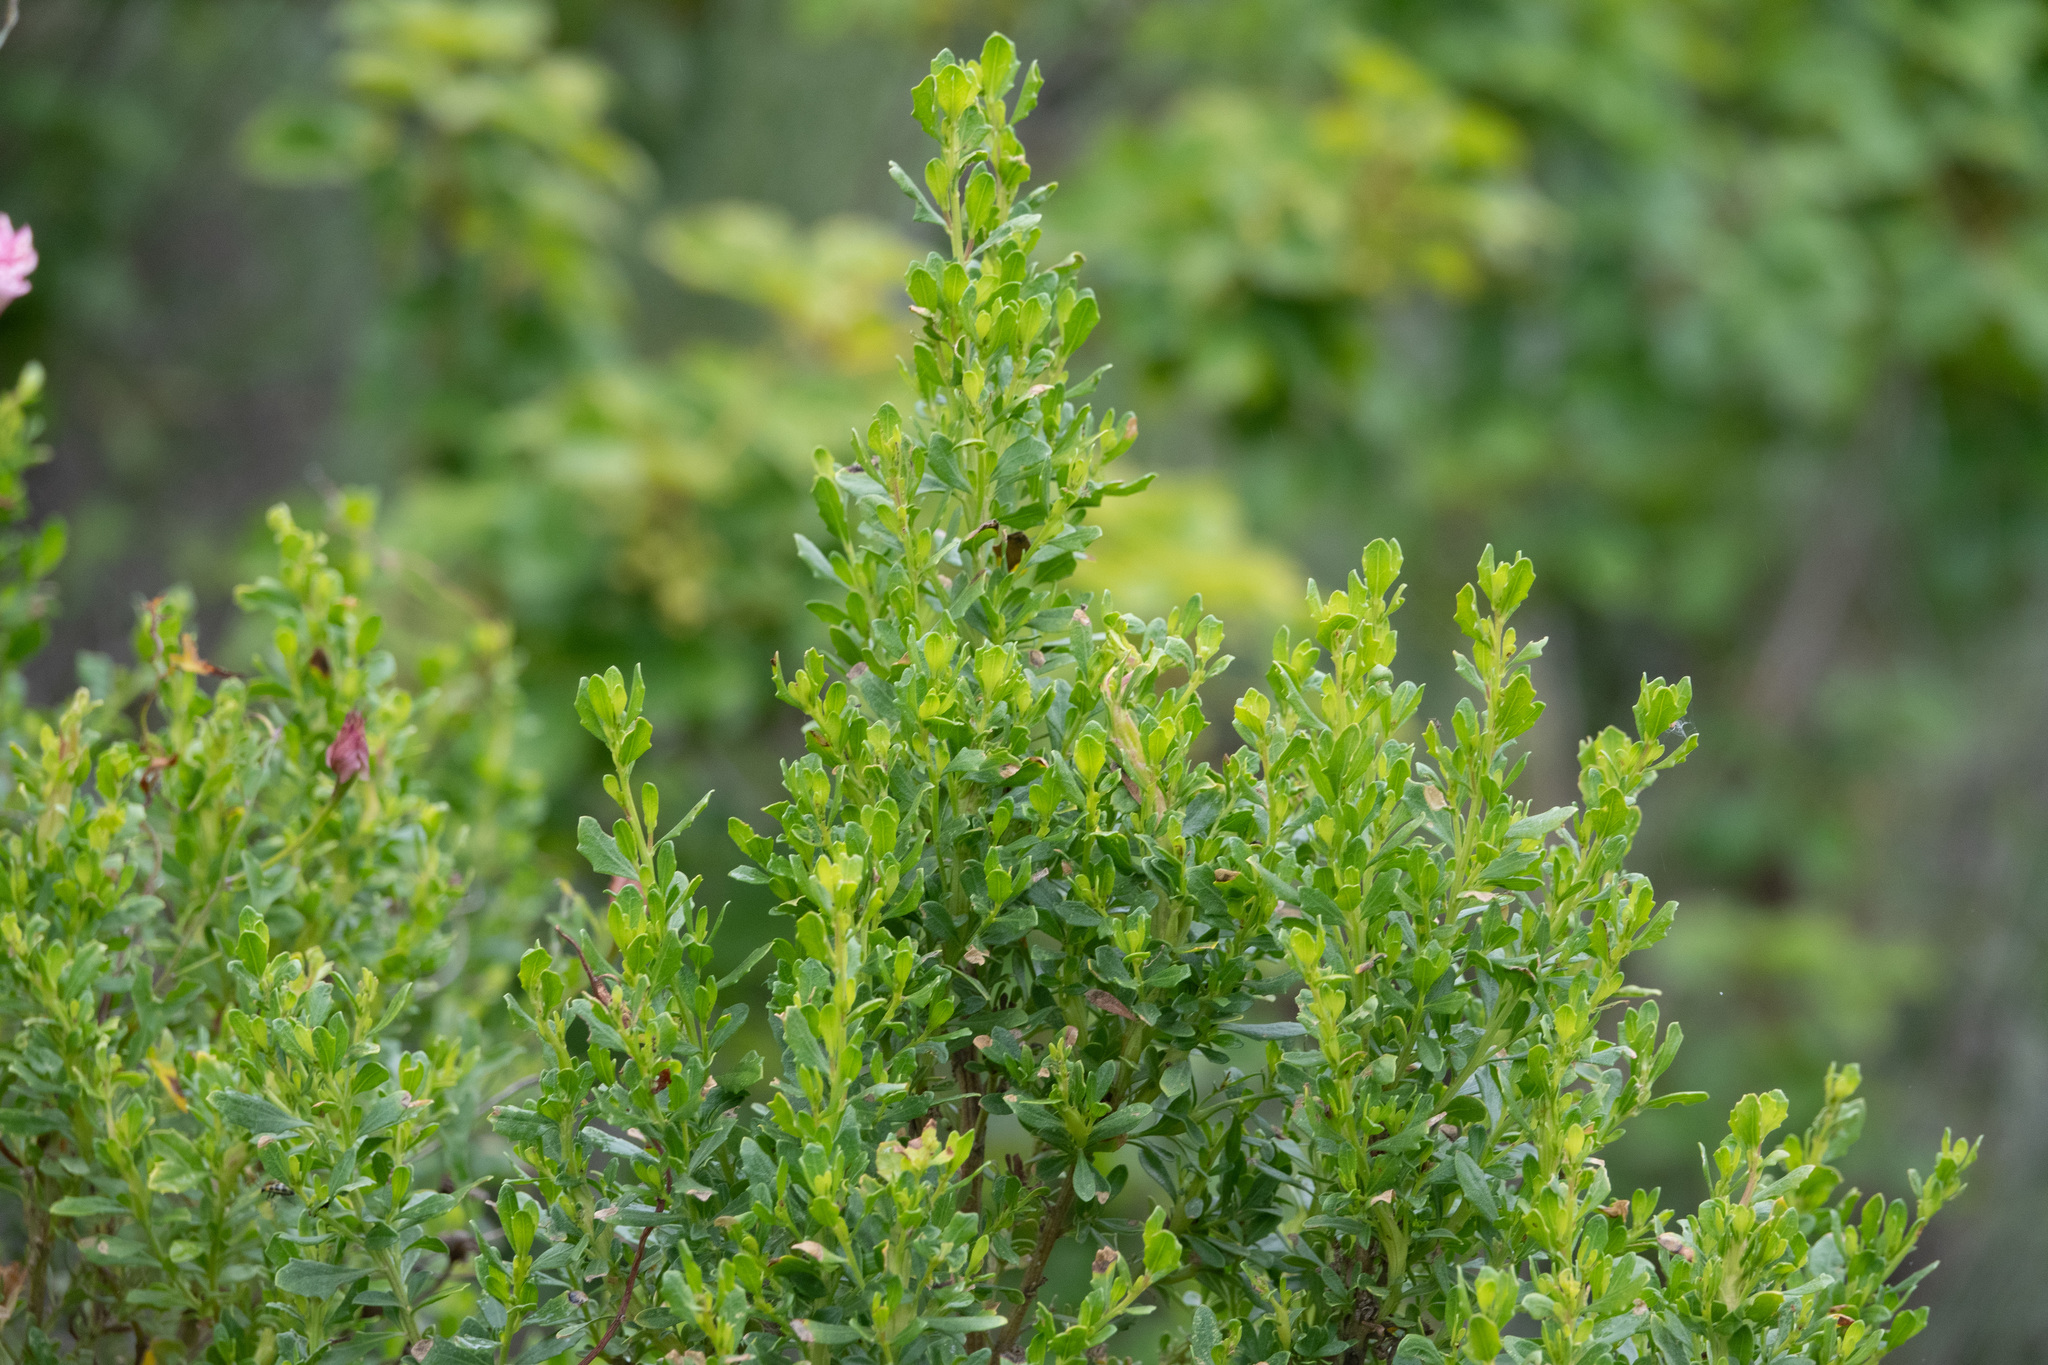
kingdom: Plantae
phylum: Tracheophyta
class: Magnoliopsida
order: Asterales
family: Asteraceae
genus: Baccharis
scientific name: Baccharis pilularis
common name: Coyotebrush
